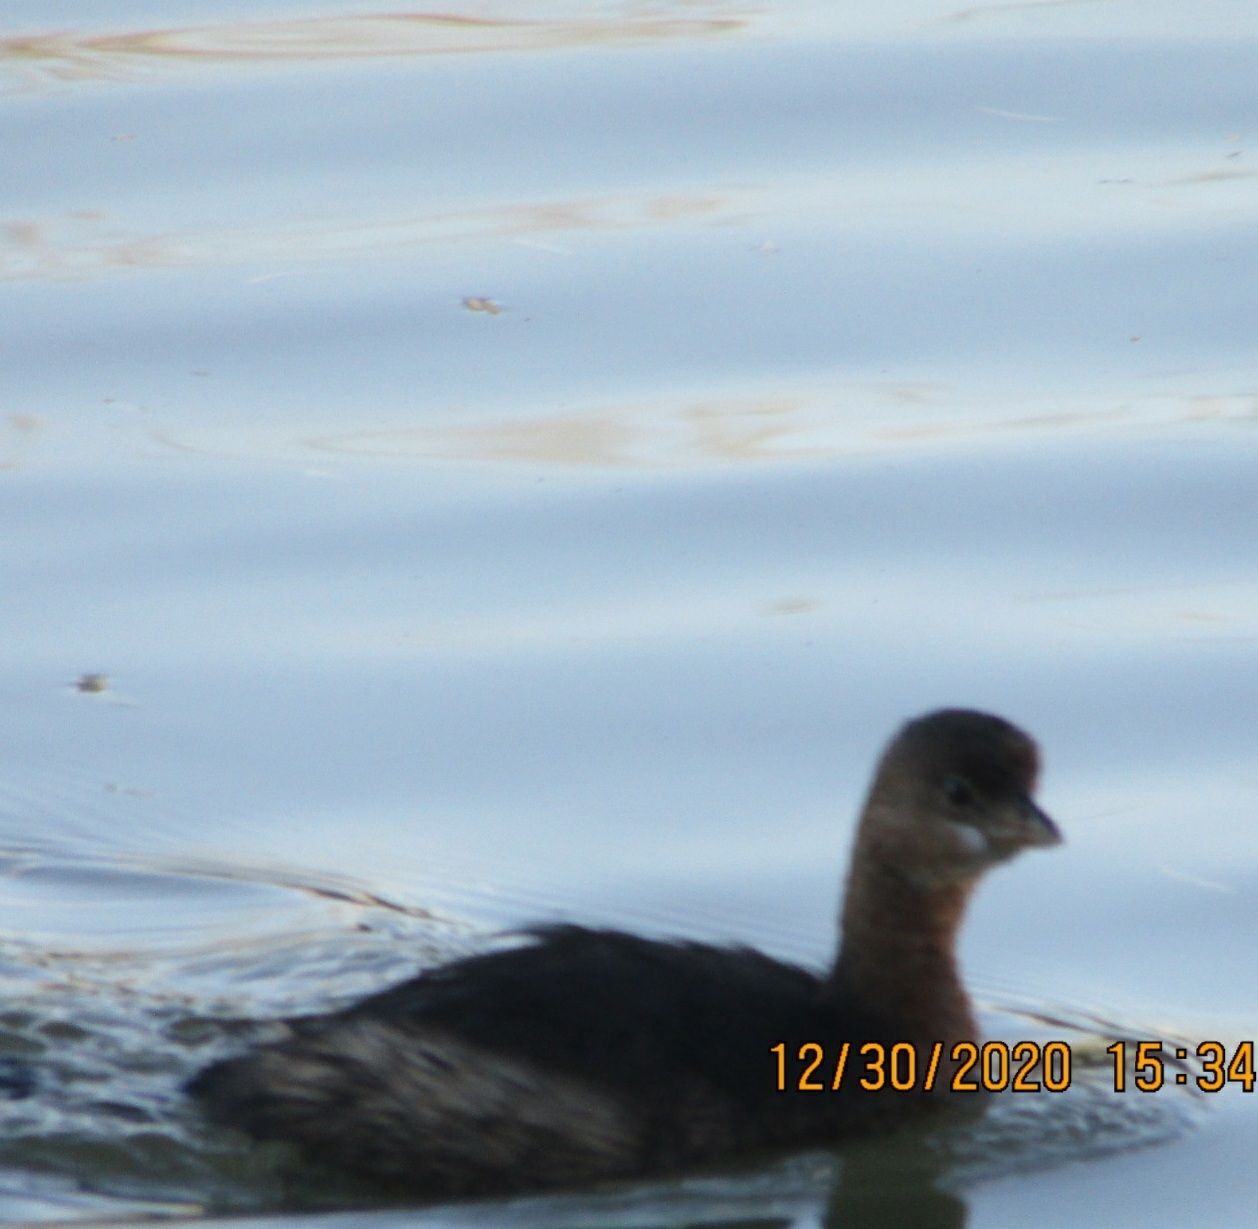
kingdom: Animalia
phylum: Chordata
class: Aves
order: Podicipediformes
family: Podicipedidae
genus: Podilymbus
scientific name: Podilymbus podiceps
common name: Pied-billed grebe
